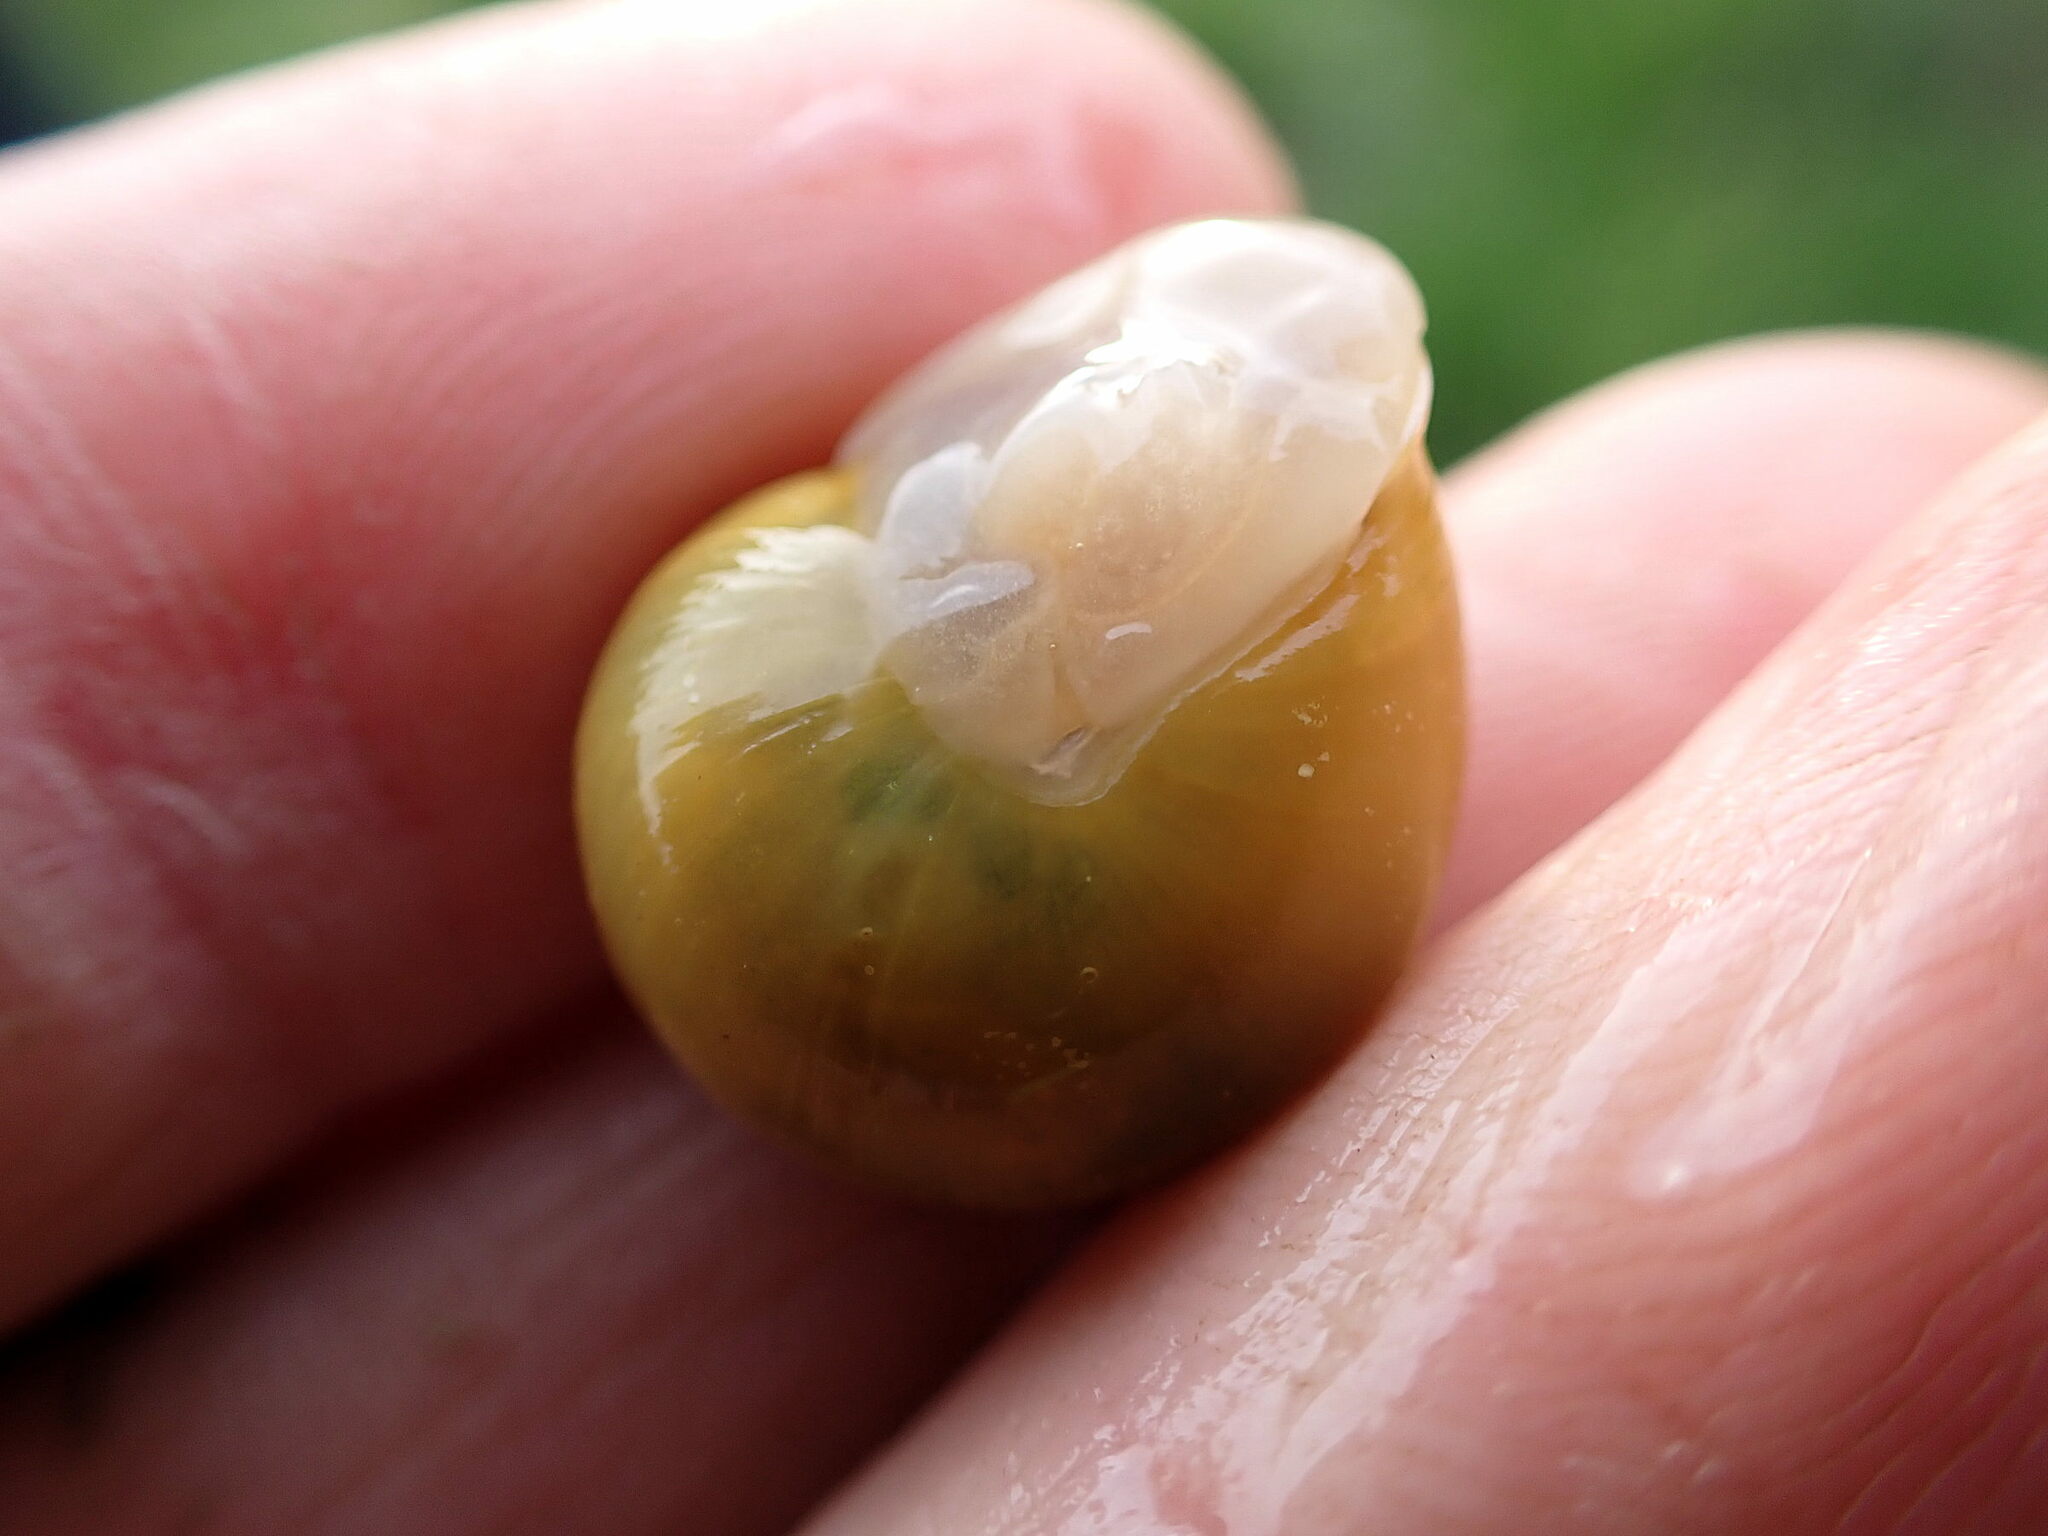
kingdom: Animalia
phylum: Mollusca
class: Gastropoda
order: Stylommatophora
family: Helicidae
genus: Cepaea
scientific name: Cepaea hortensis
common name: White-lip gardensnail
